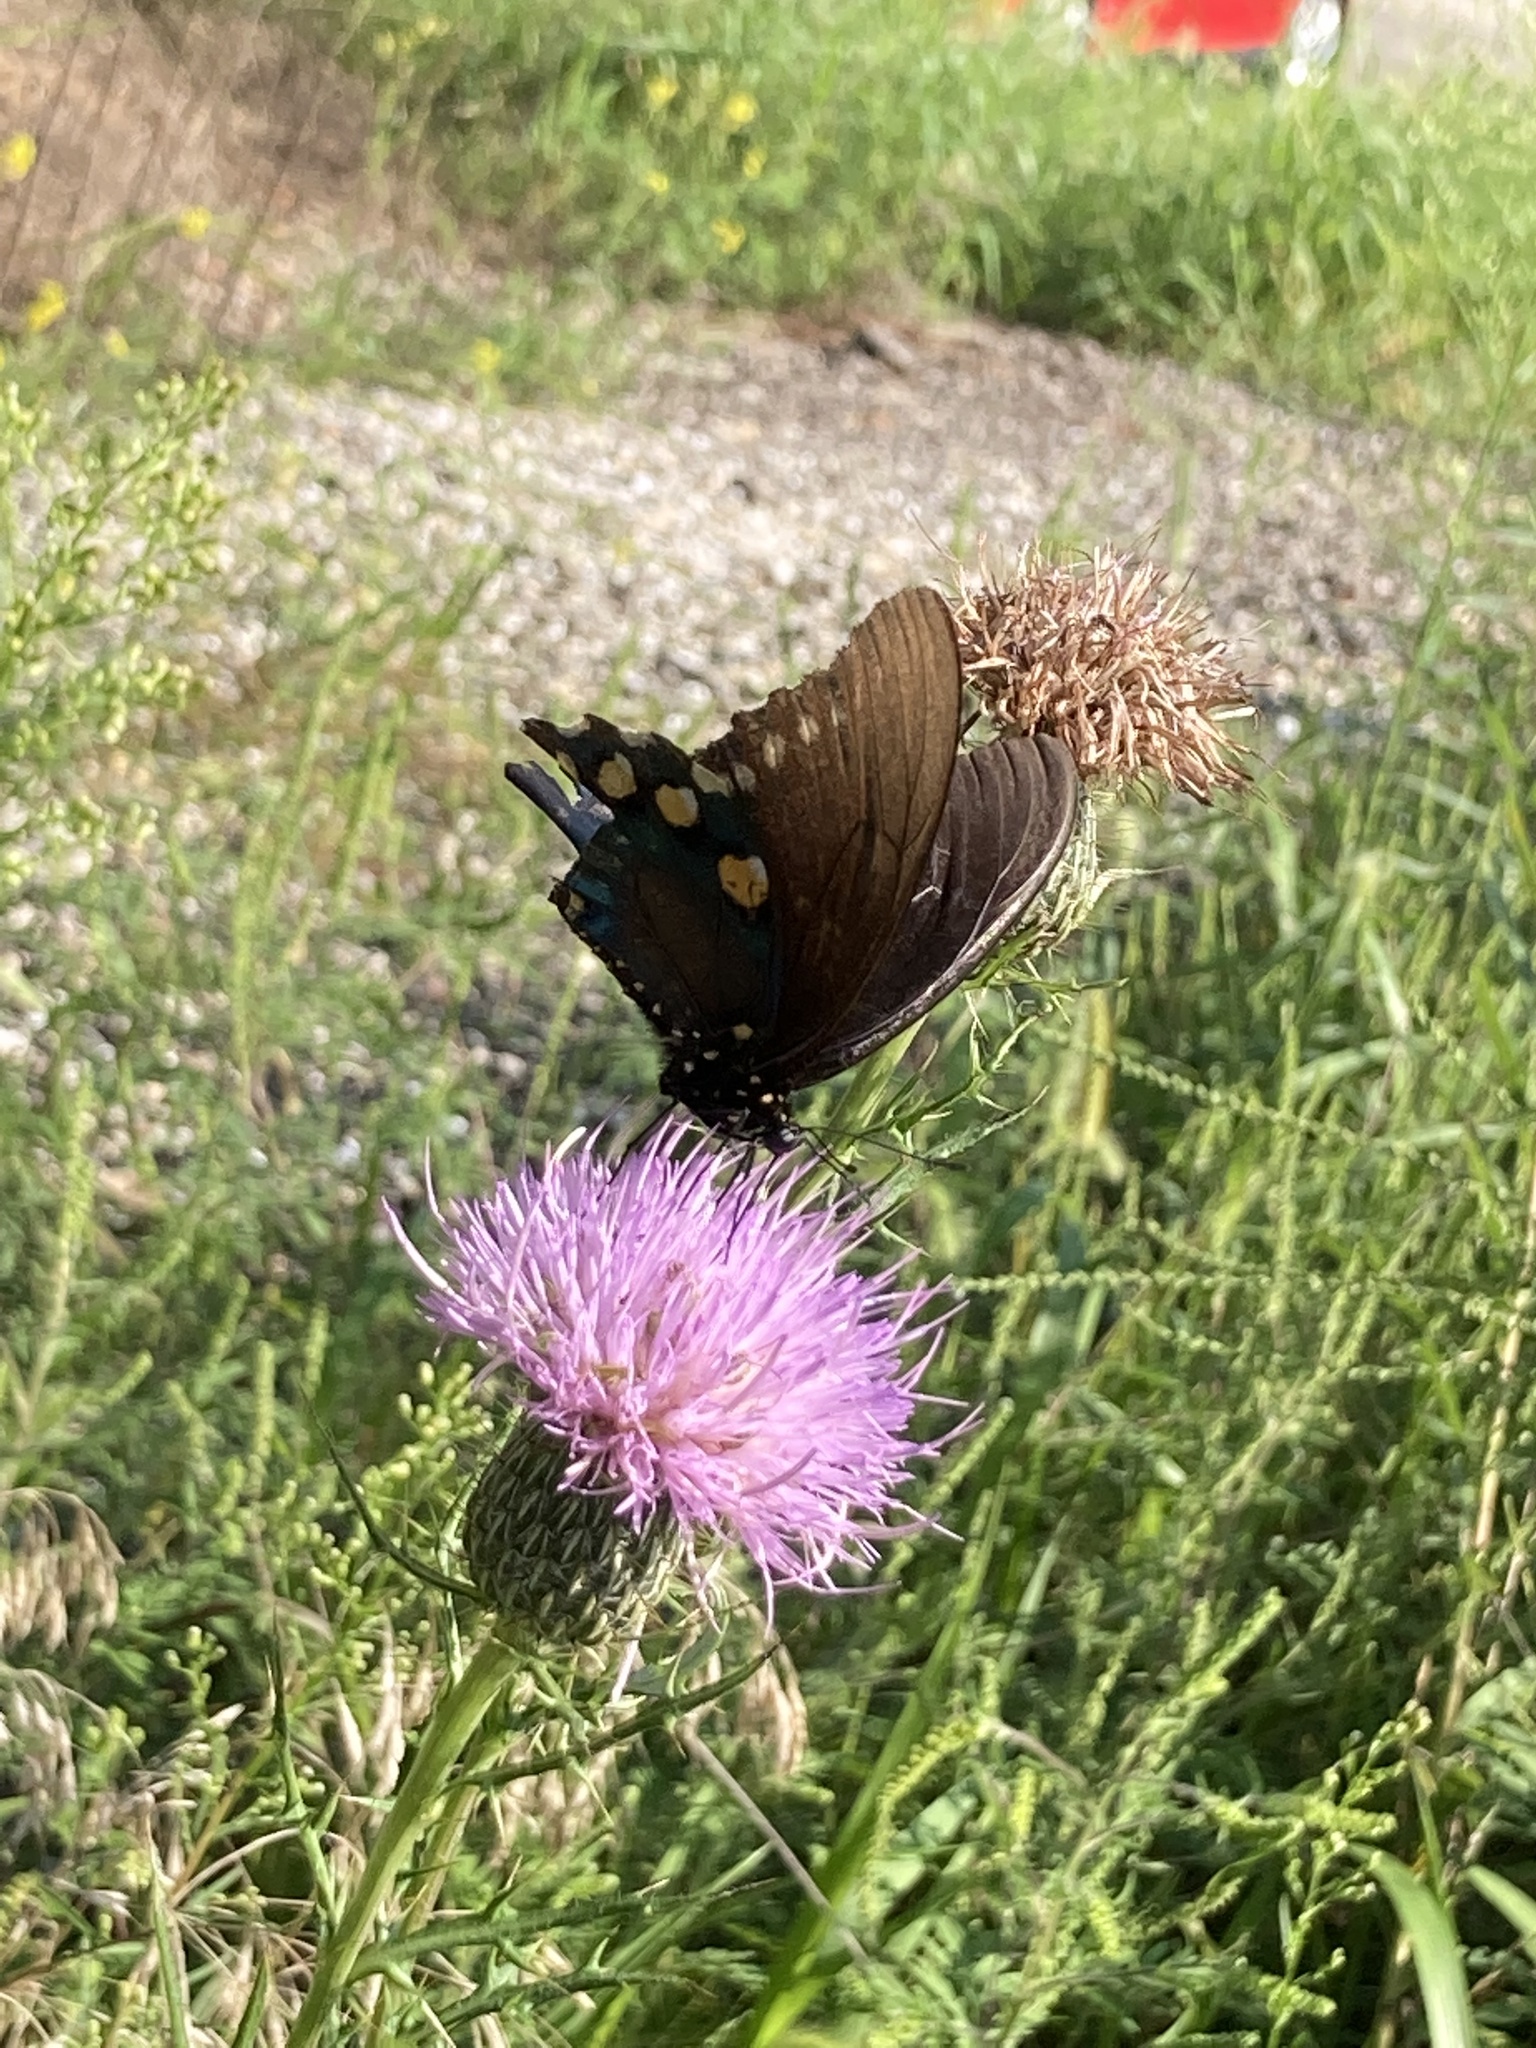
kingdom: Animalia
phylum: Arthropoda
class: Insecta
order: Lepidoptera
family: Papilionidae
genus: Battus
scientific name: Battus philenor
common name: Pipevine swallowtail
